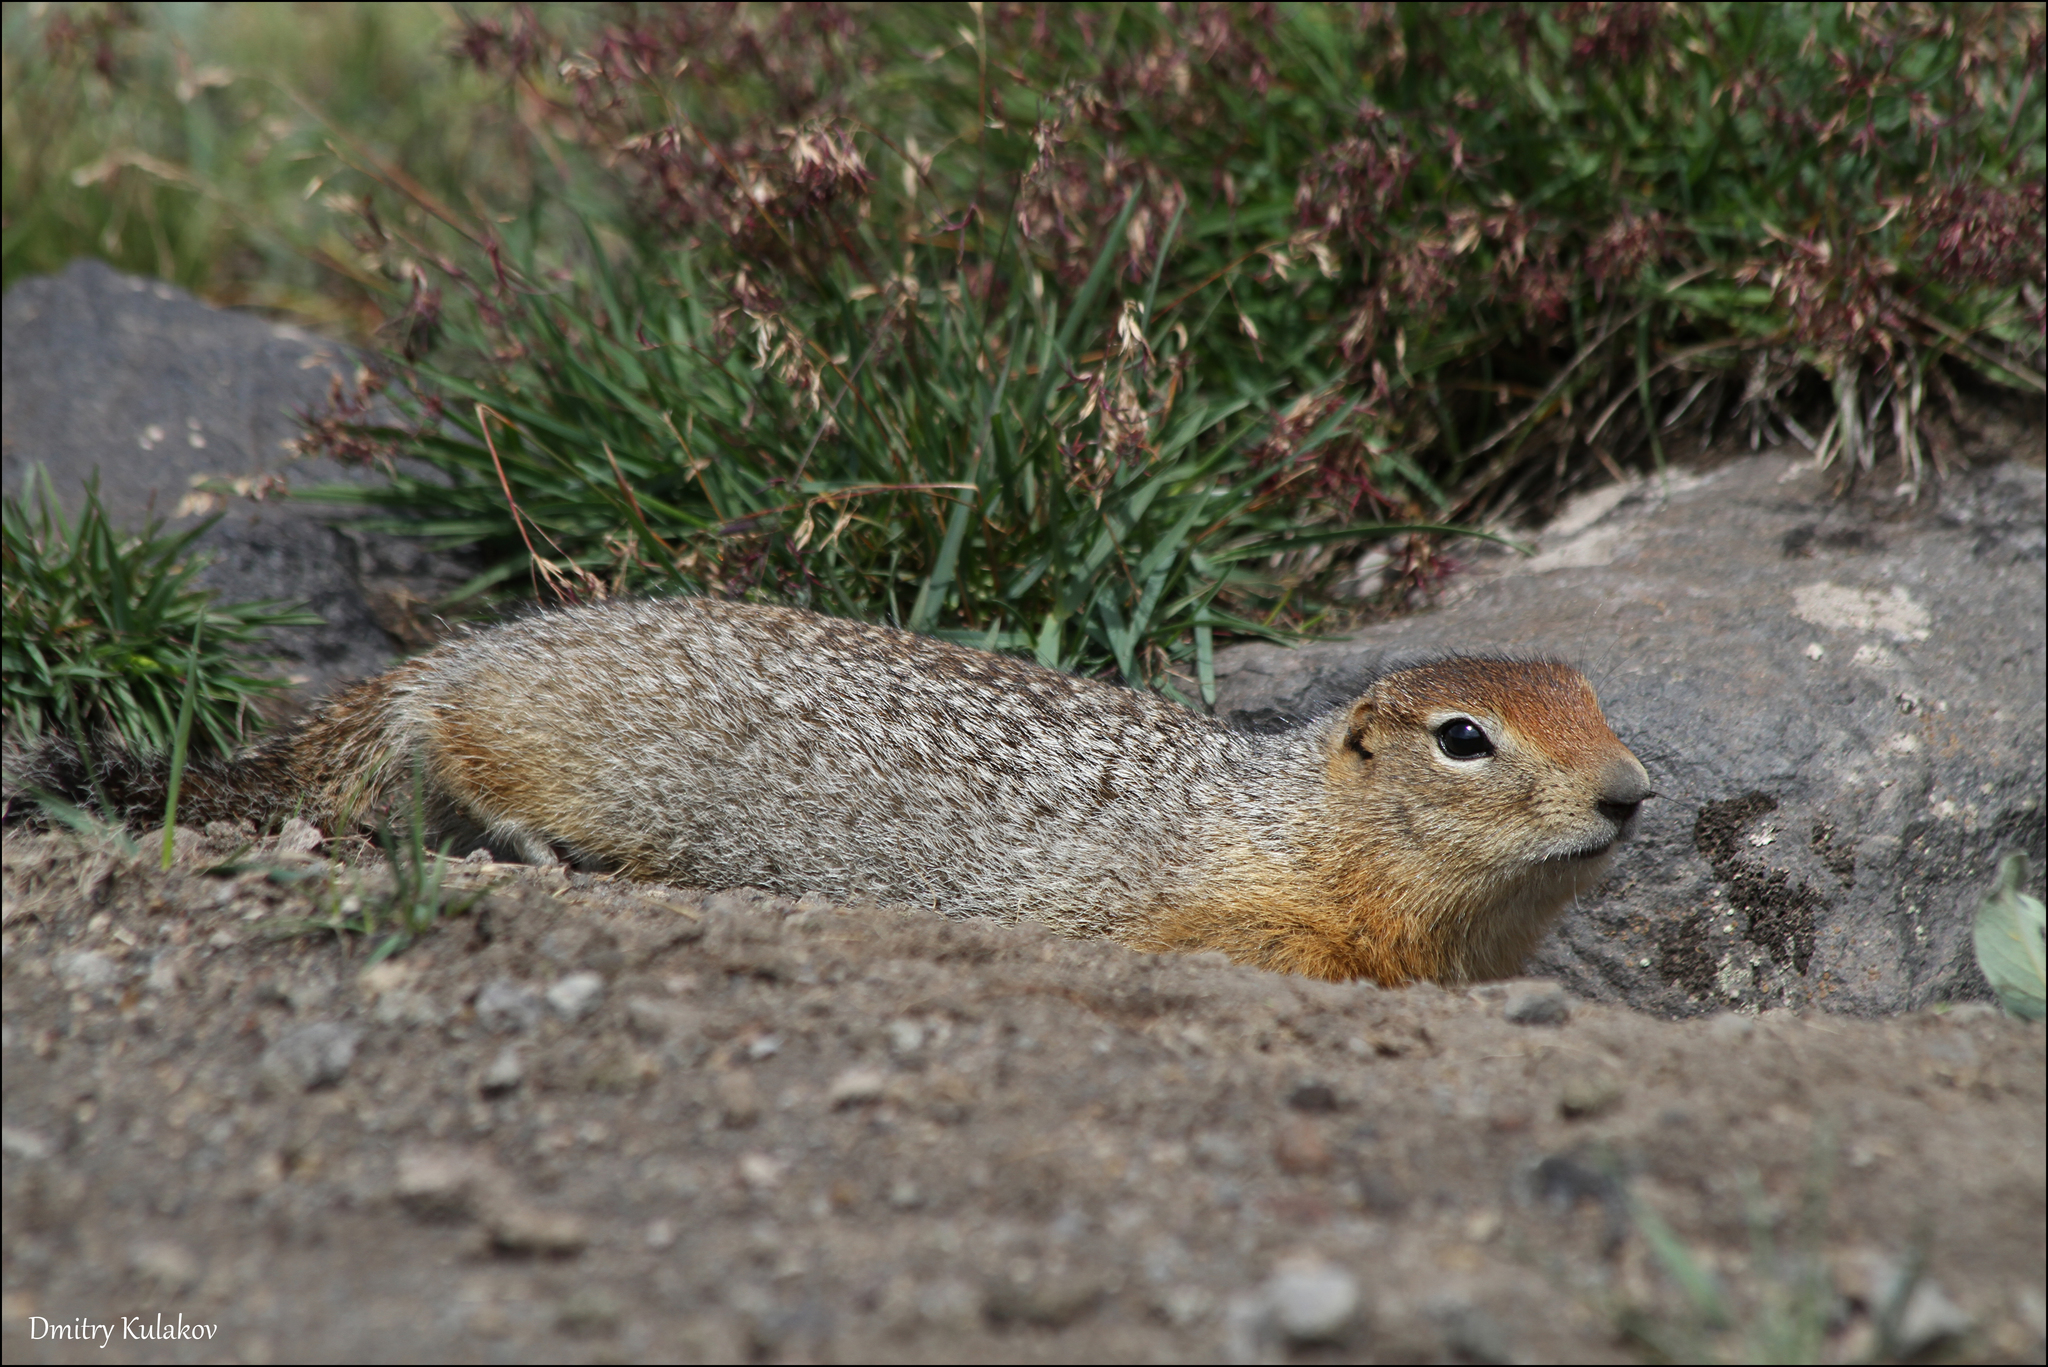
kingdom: Animalia
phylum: Chordata
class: Mammalia
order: Rodentia
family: Sciuridae
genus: Urocitellus
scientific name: Urocitellus parryii
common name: Arctic ground squirrel
